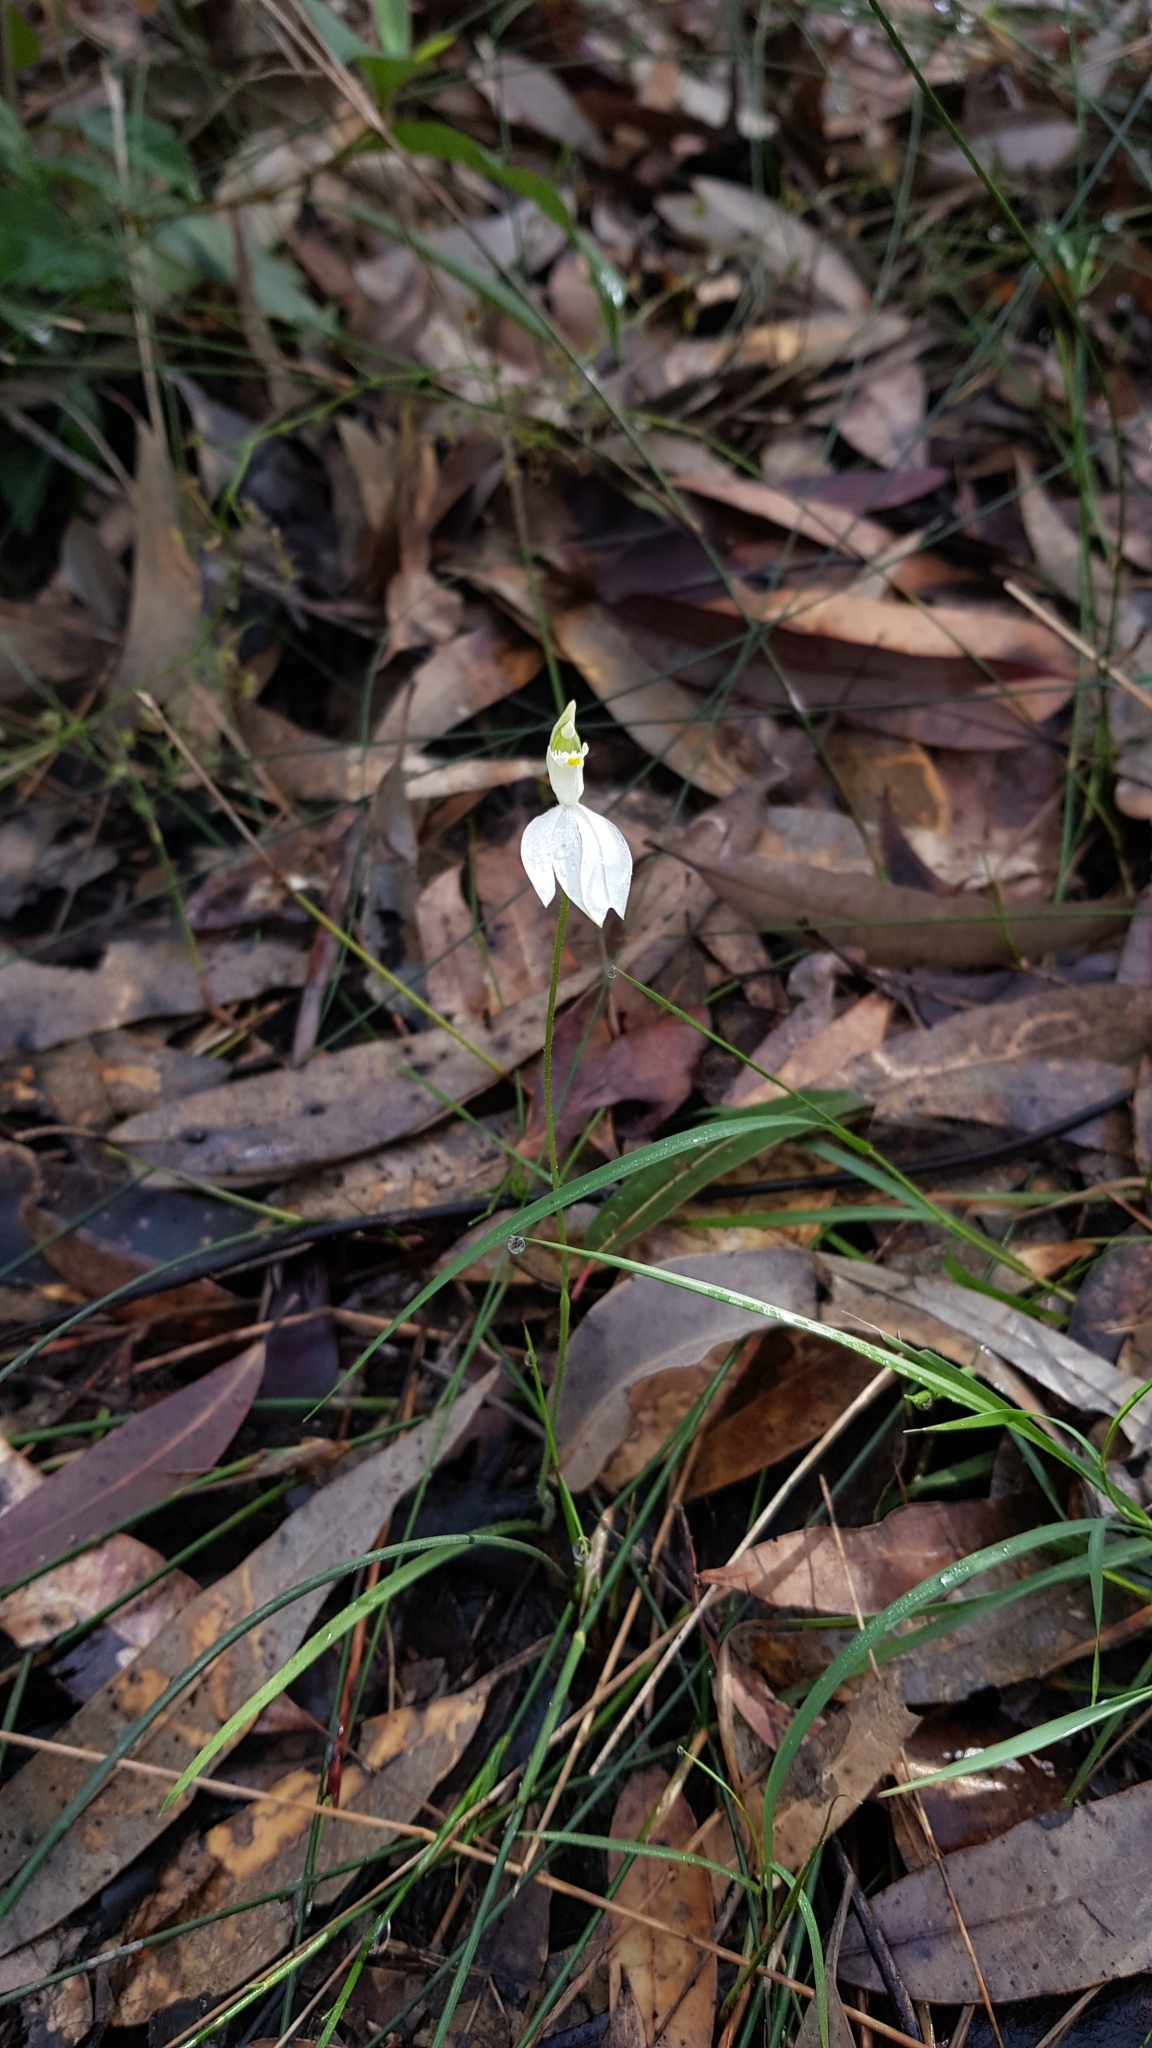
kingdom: Plantae
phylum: Tracheophyta
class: Liliopsida
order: Asparagales
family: Orchidaceae
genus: Caladenia
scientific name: Caladenia catenata
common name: White caladenia
